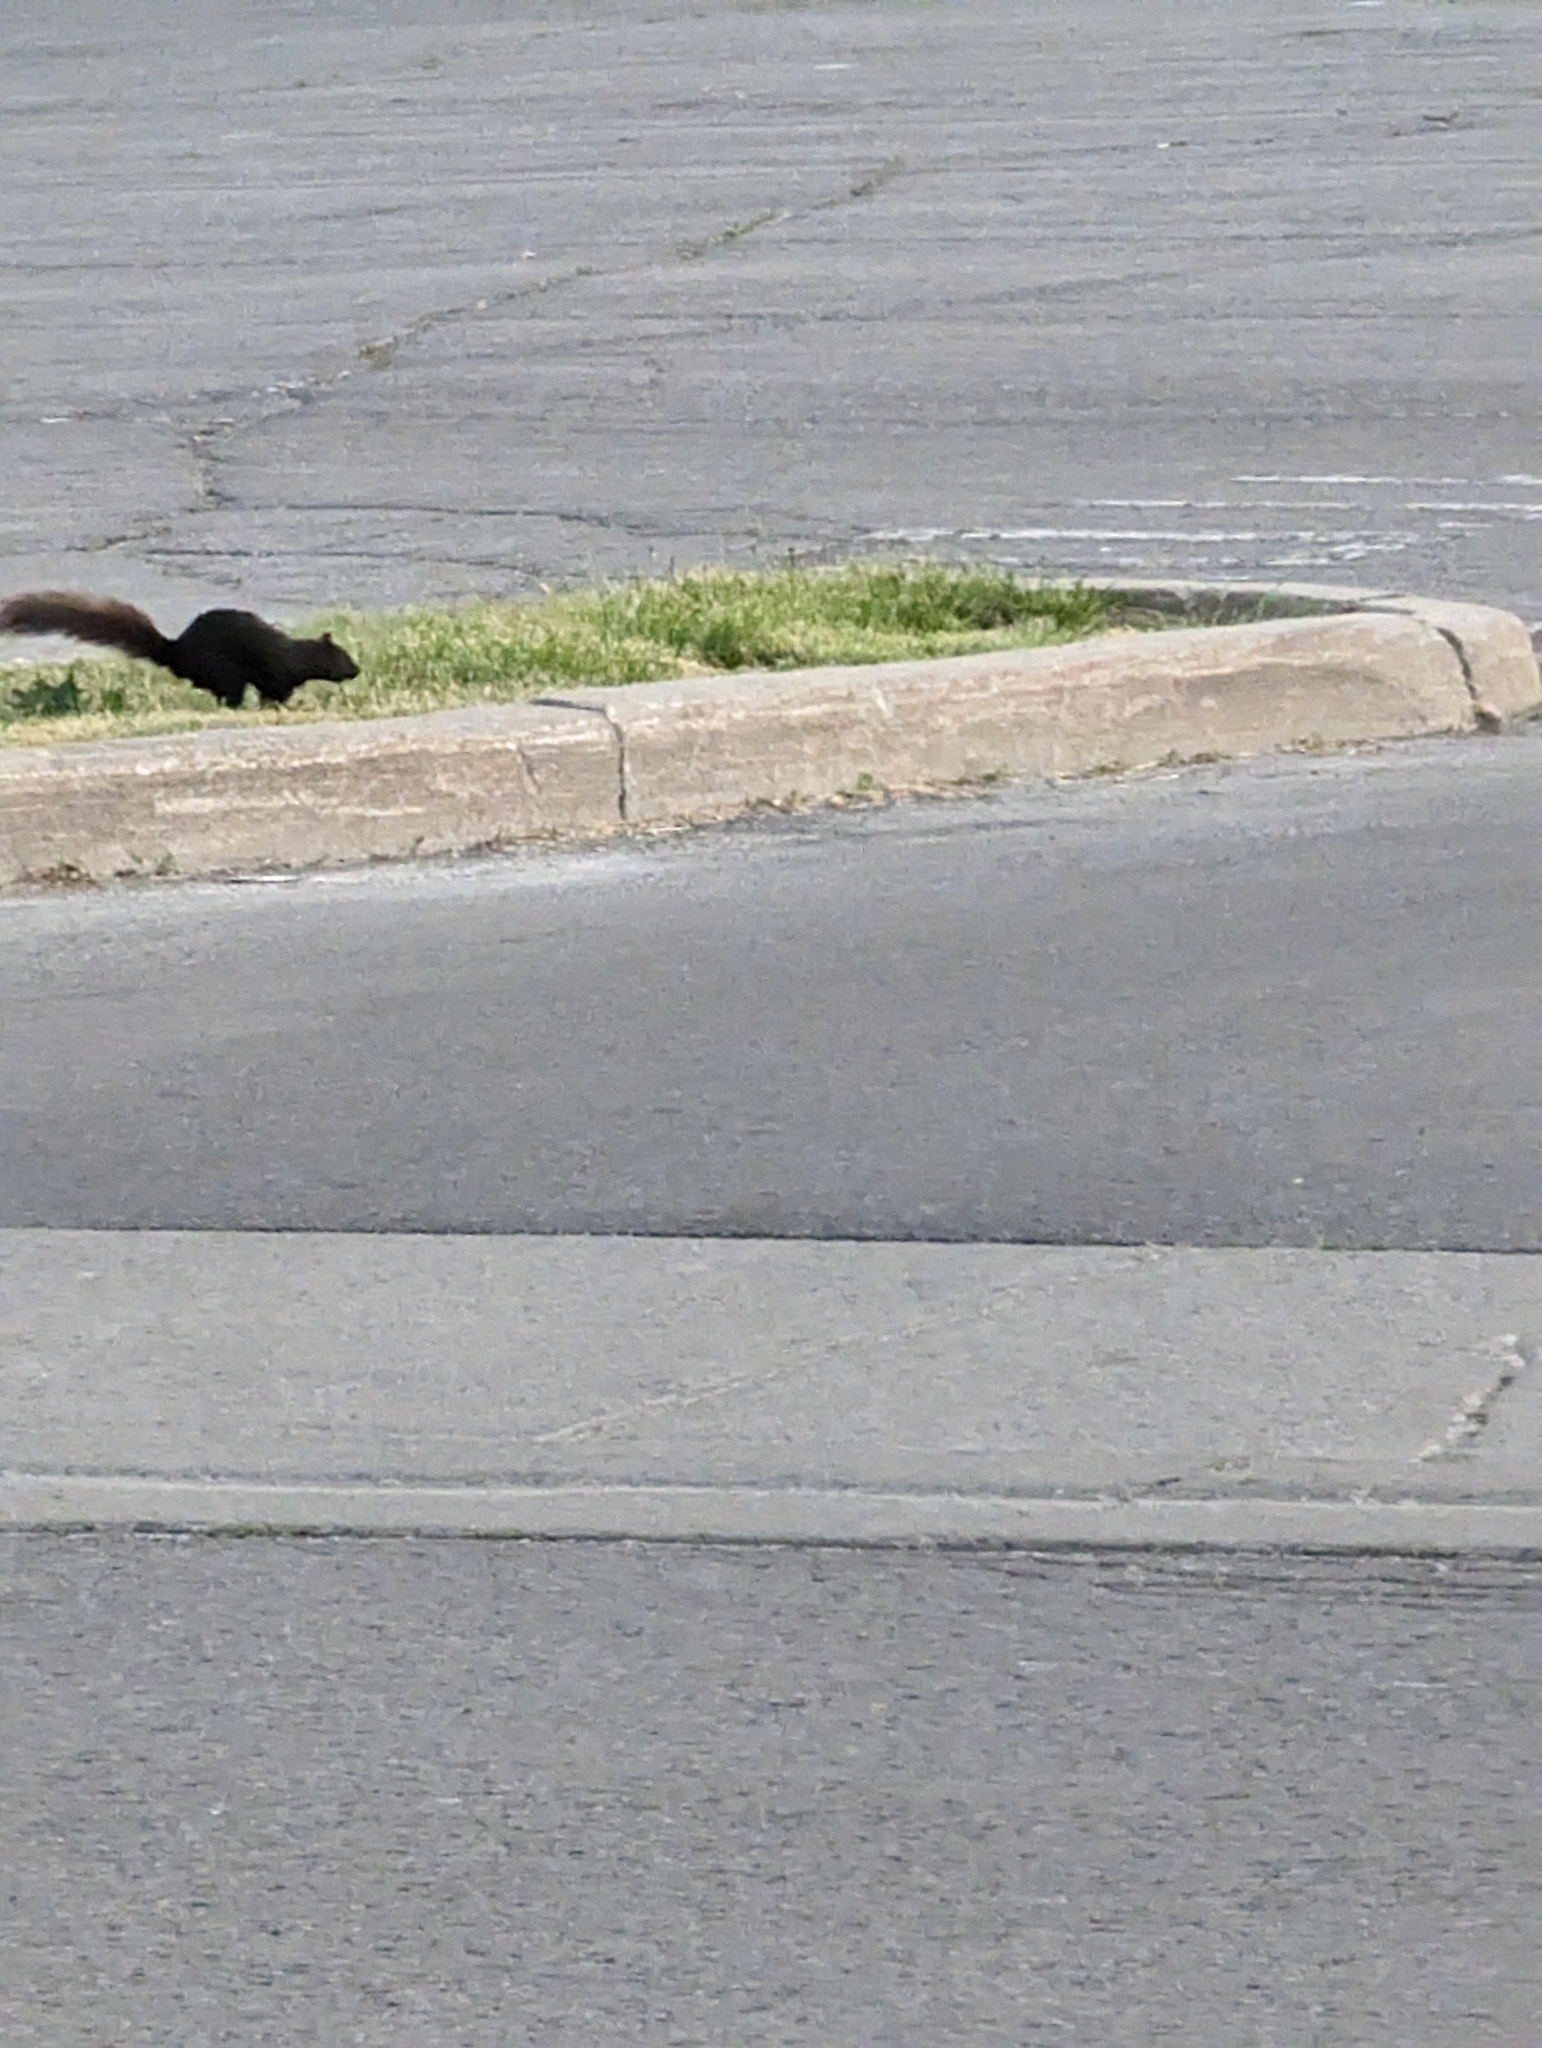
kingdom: Animalia
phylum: Chordata
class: Mammalia
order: Rodentia
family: Sciuridae
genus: Sciurus
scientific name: Sciurus carolinensis
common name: Eastern gray squirrel
